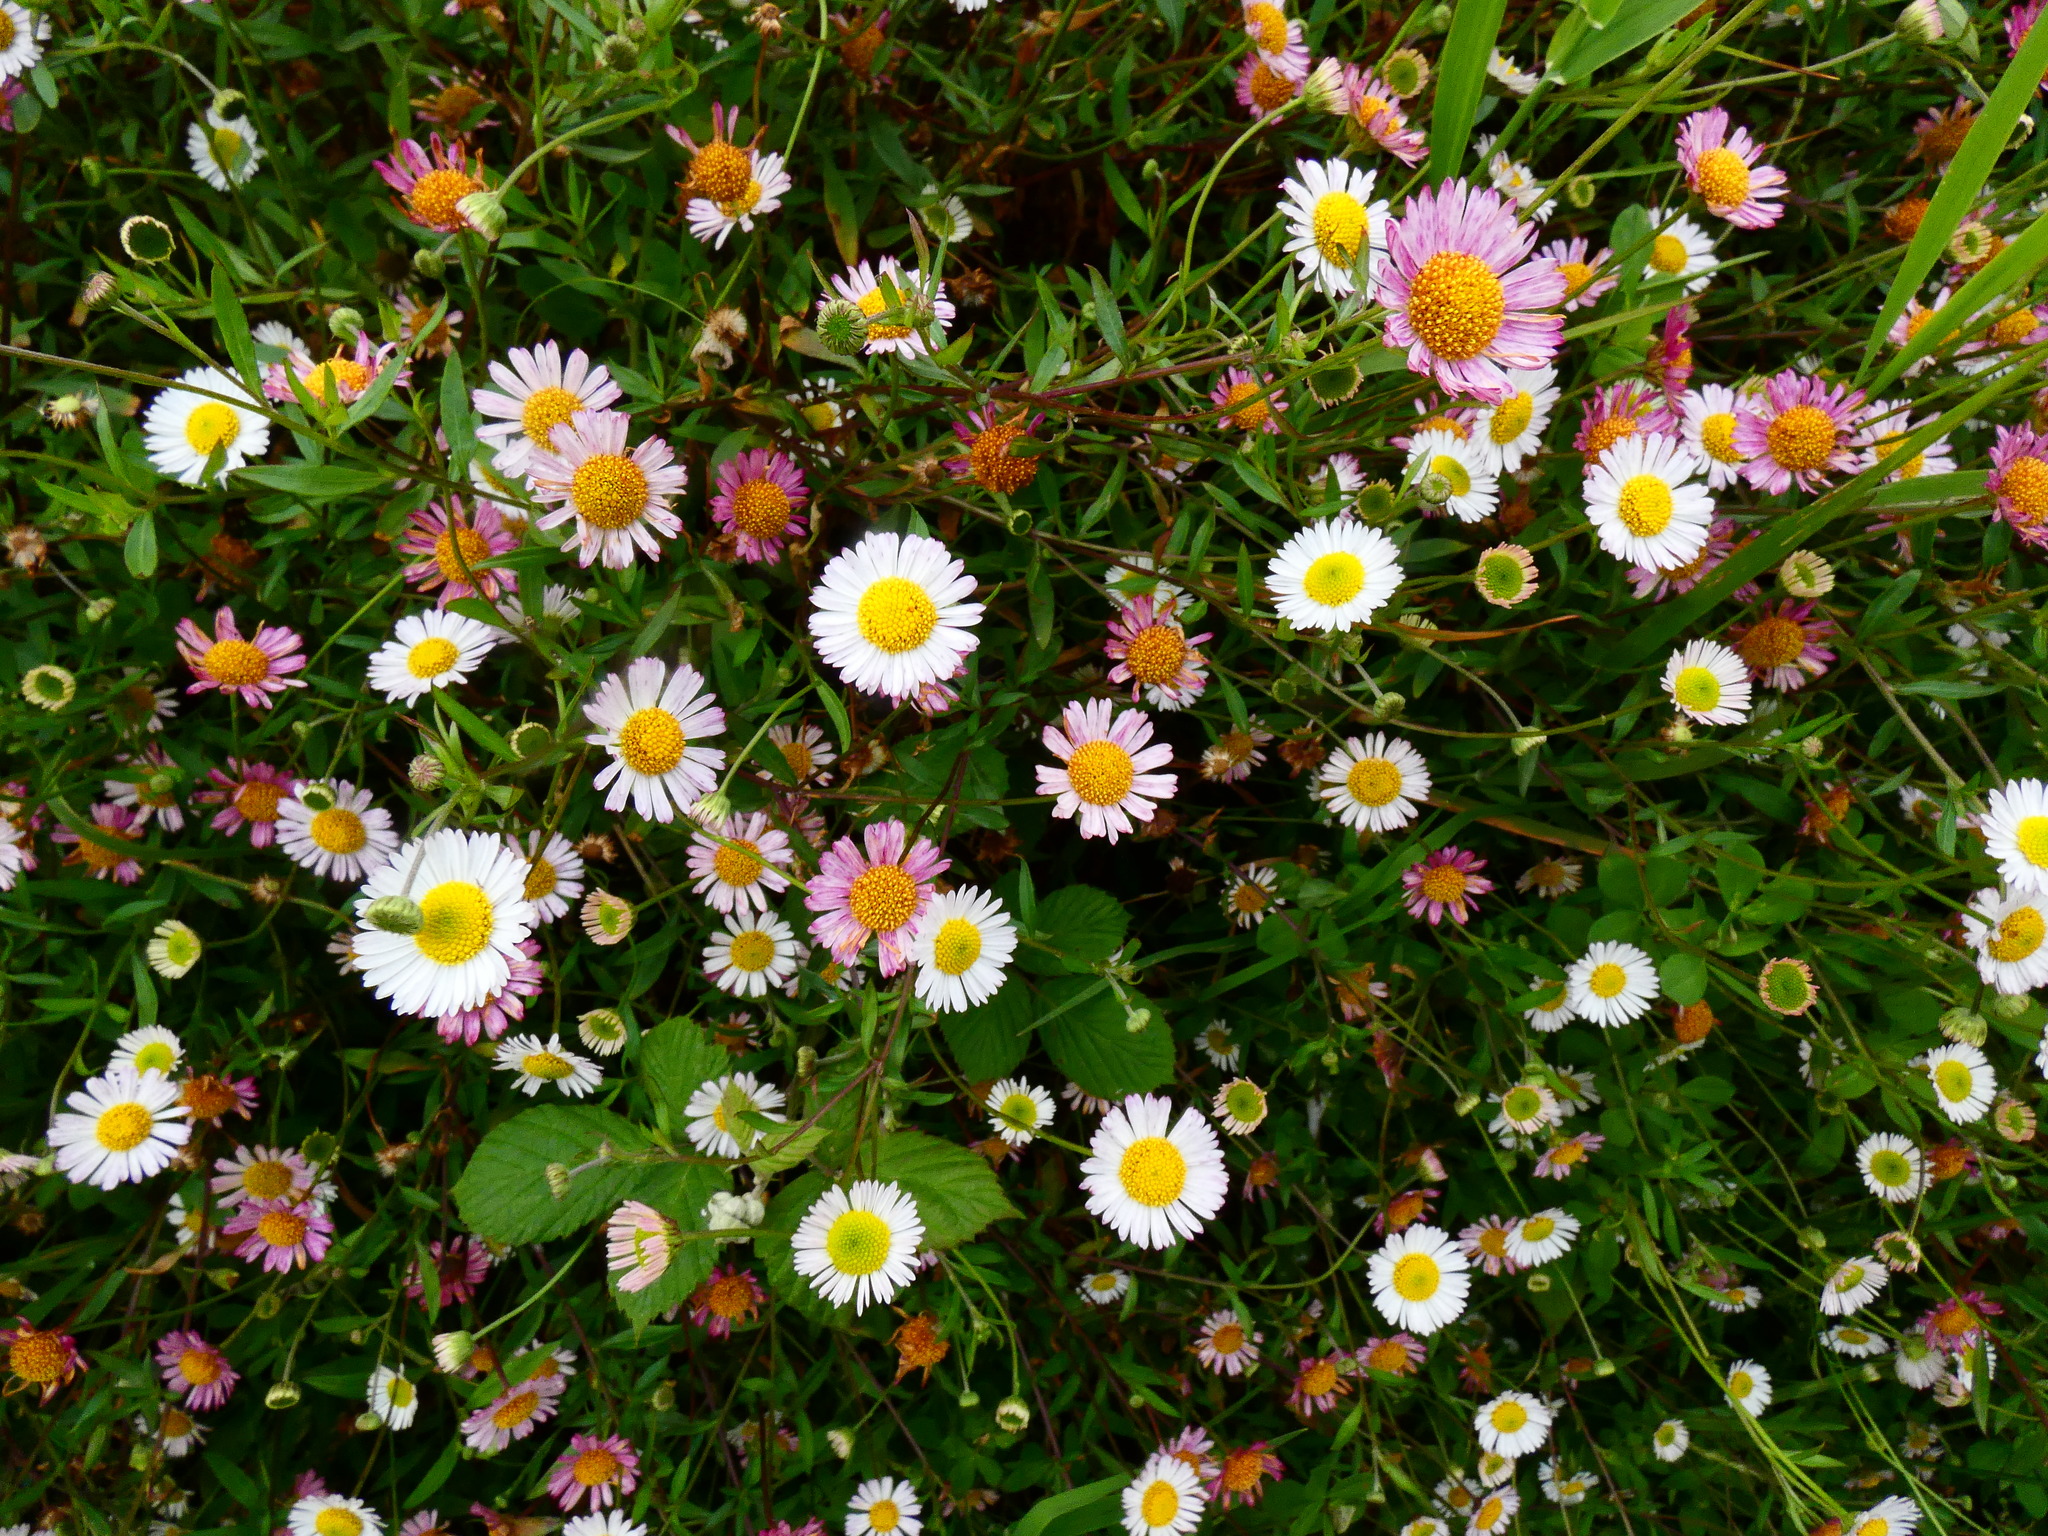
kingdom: Plantae
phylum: Tracheophyta
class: Magnoliopsida
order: Asterales
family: Asteraceae
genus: Erigeron
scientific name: Erigeron karvinskianus
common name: Mexican fleabane
